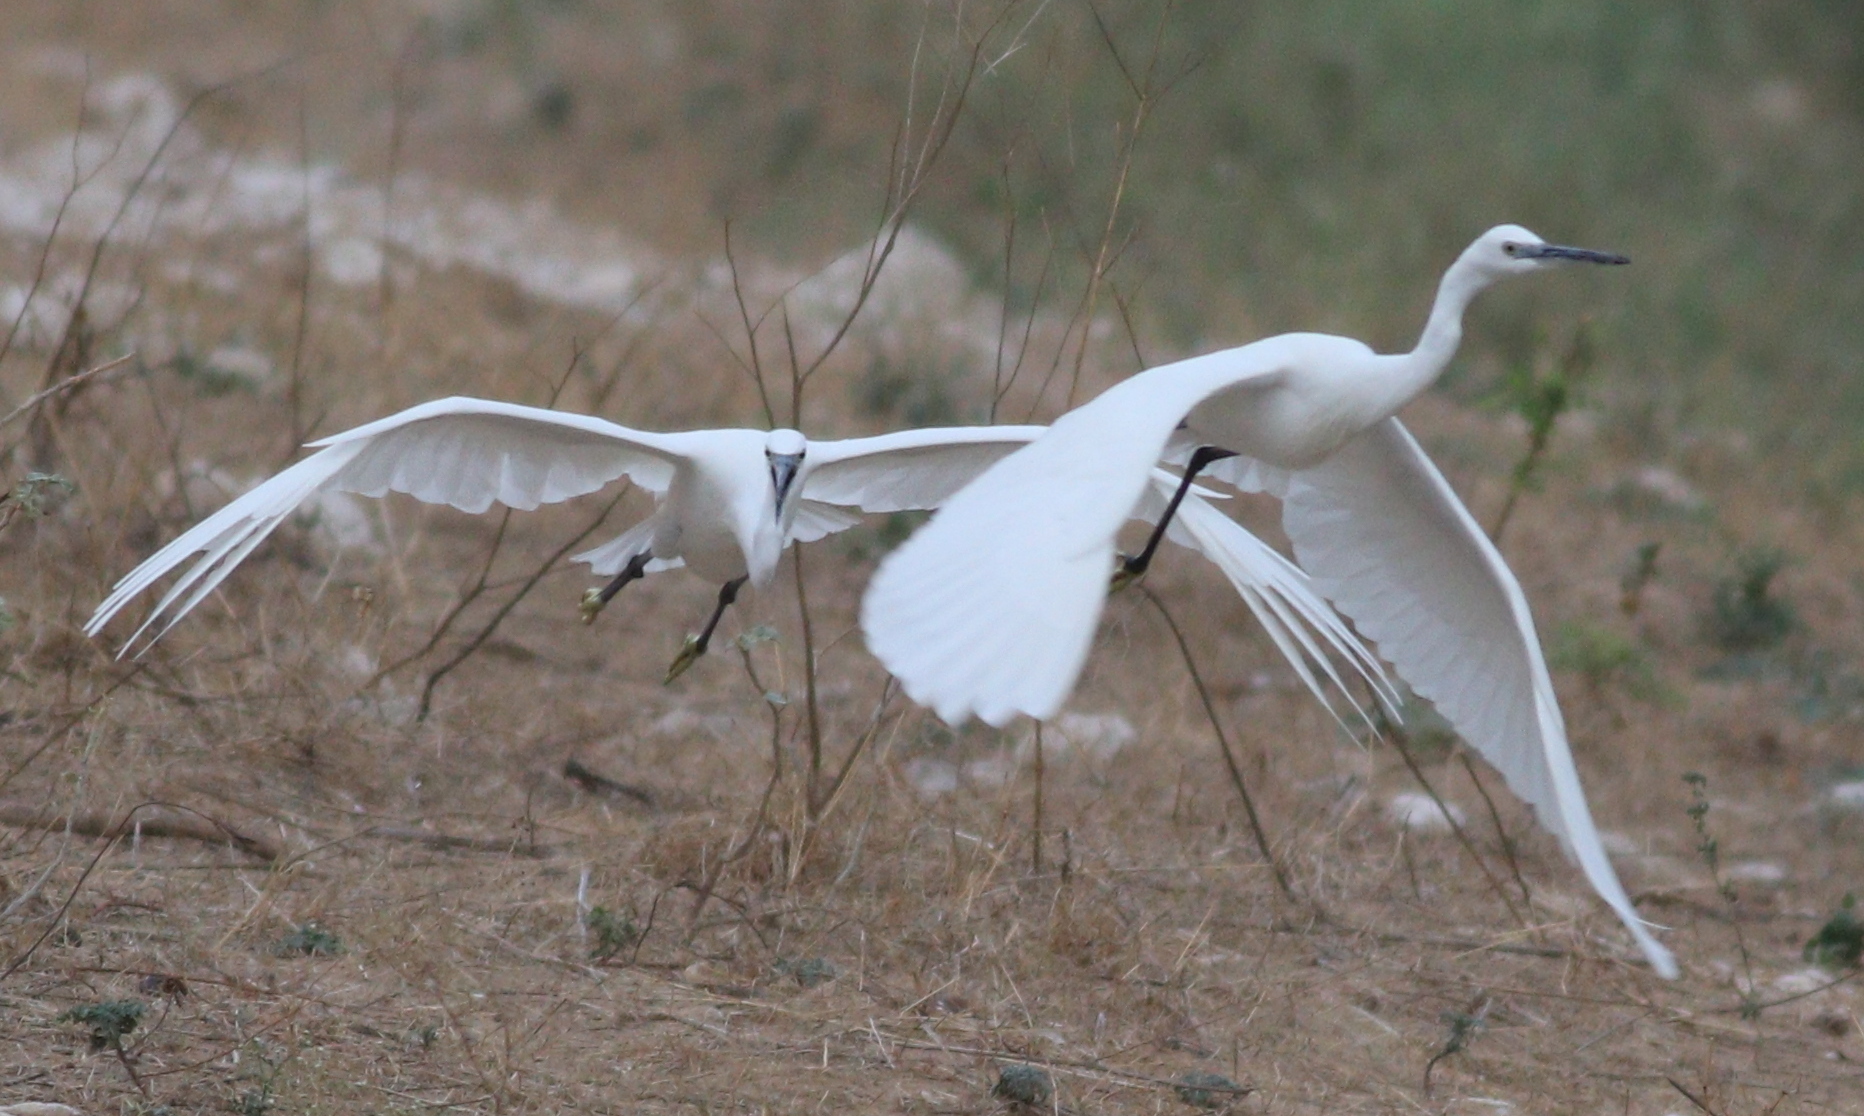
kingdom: Animalia
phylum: Chordata
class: Aves
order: Pelecaniformes
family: Ardeidae
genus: Egretta
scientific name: Egretta garzetta
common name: Little egret
